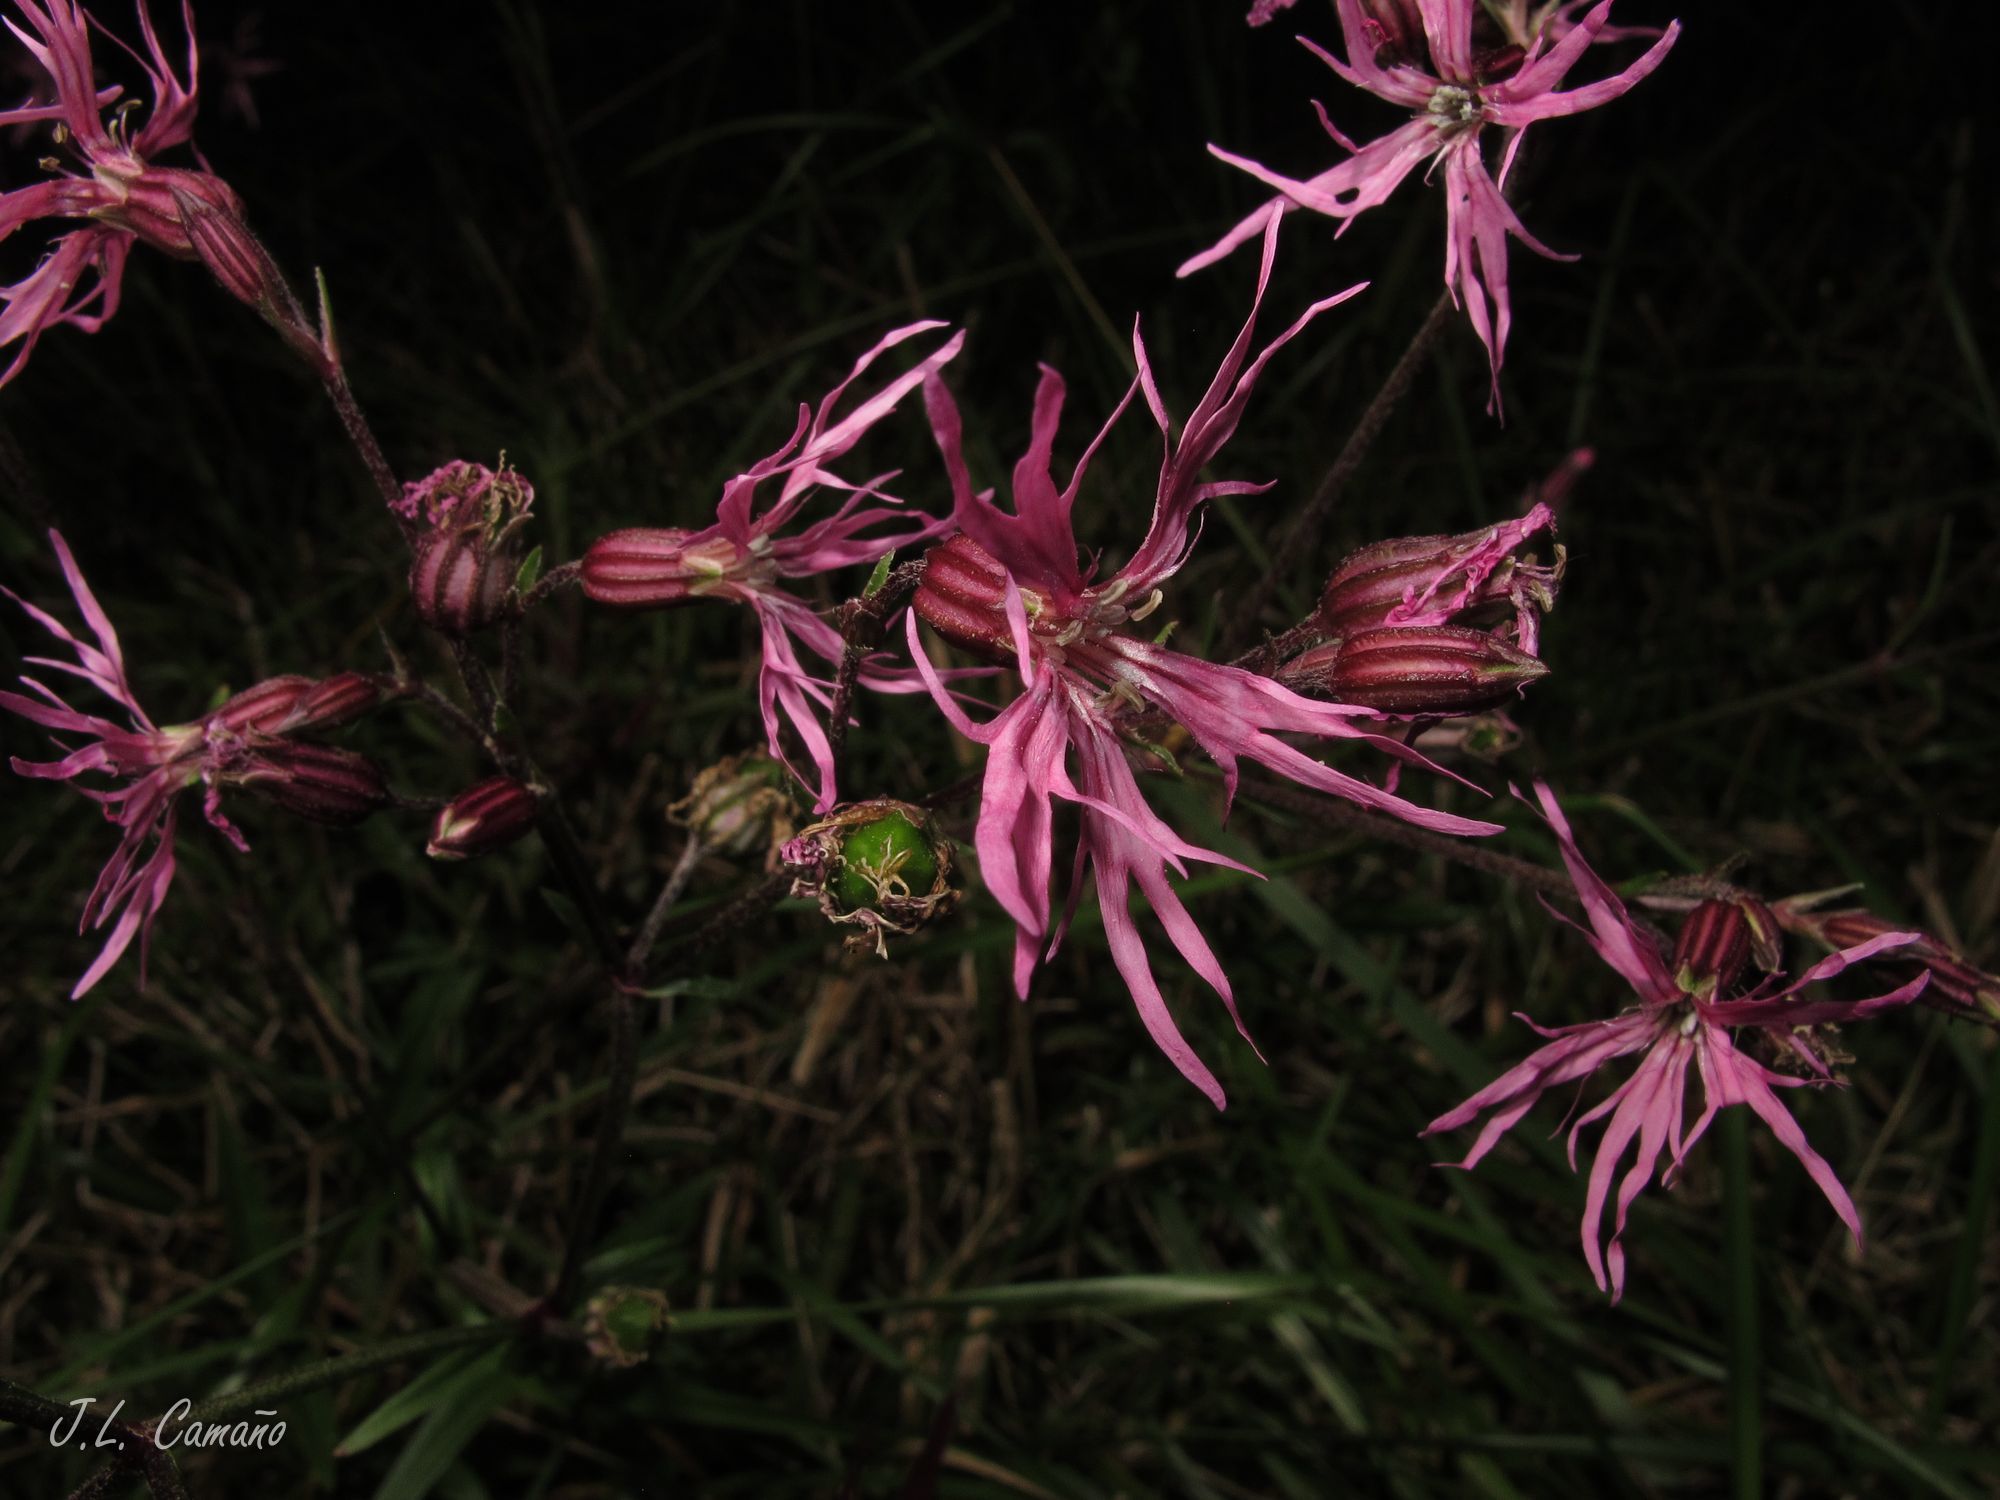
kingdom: Plantae
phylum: Tracheophyta
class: Magnoliopsida
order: Caryophyllales
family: Caryophyllaceae
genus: Silene
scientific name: Silene flos-cuculi
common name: Ragged-robin
